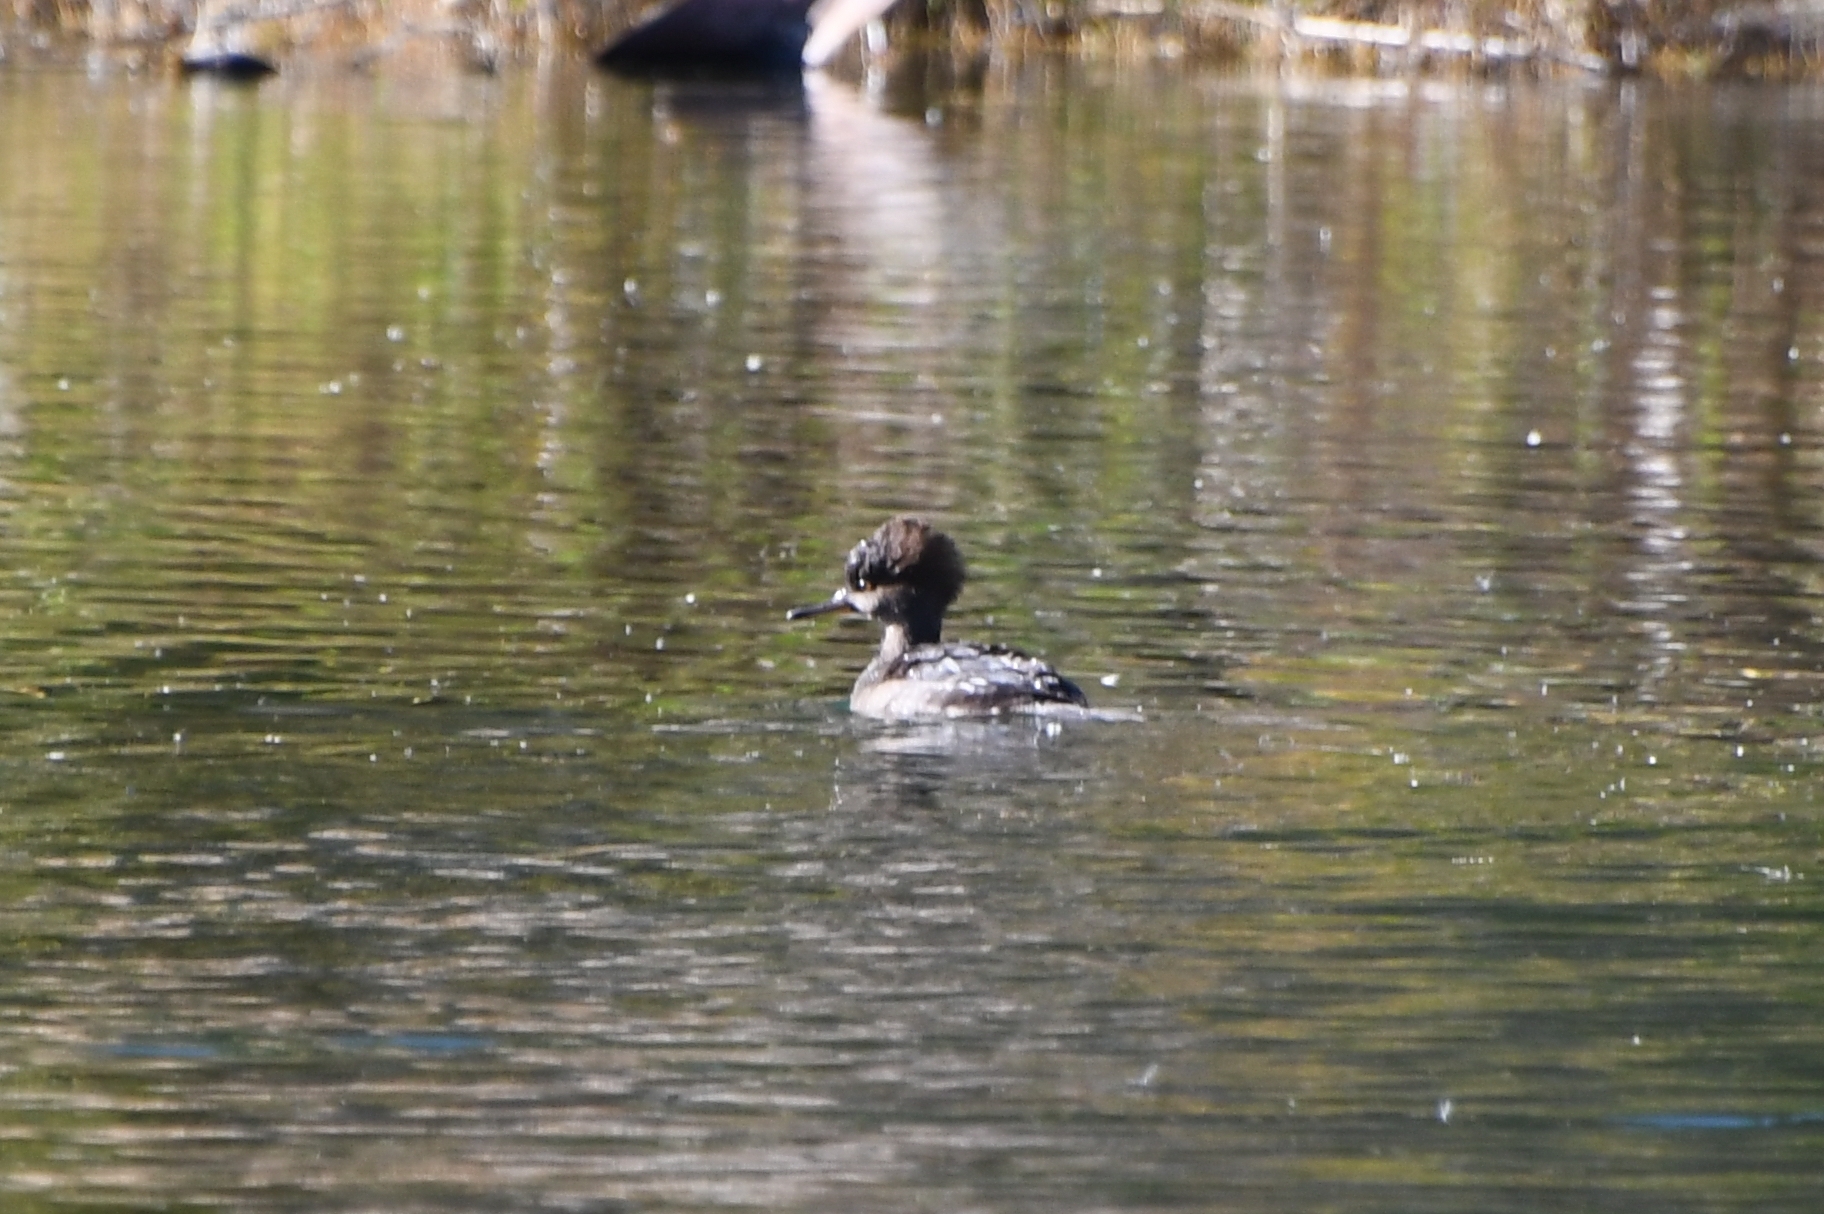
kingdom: Animalia
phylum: Chordata
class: Aves
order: Anseriformes
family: Anatidae
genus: Lophodytes
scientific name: Lophodytes cucullatus
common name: Hooded merganser
